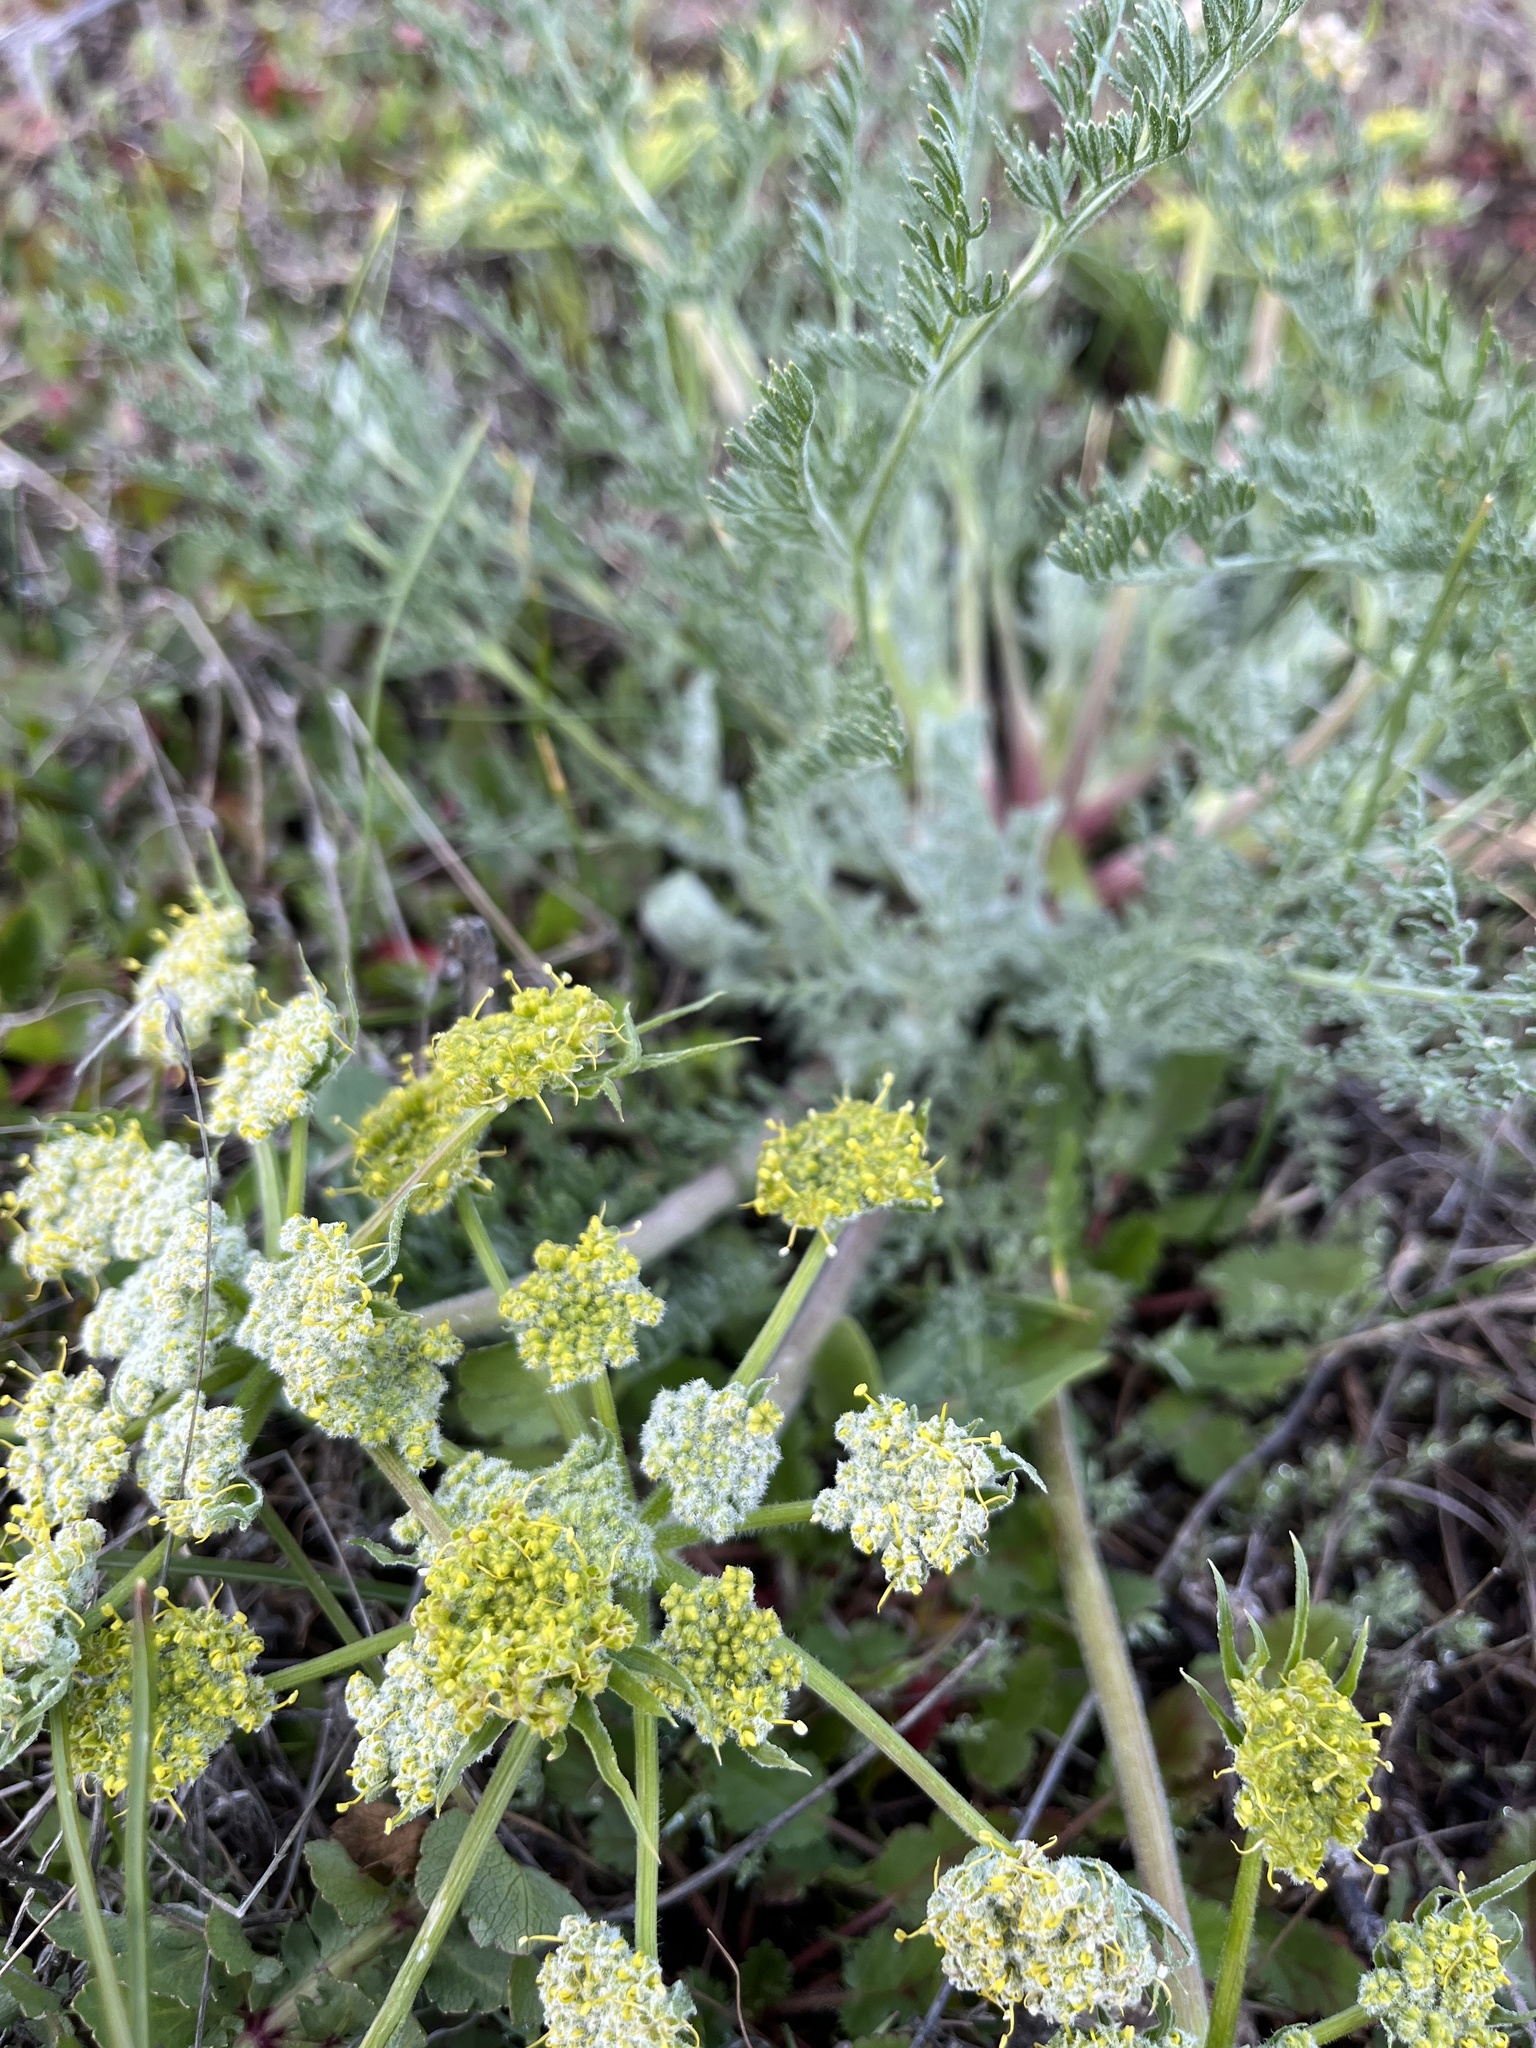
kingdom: Plantae
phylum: Tracheophyta
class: Magnoliopsida
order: Apiales
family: Apiaceae
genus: Lomatium
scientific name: Lomatium dasycarpum
